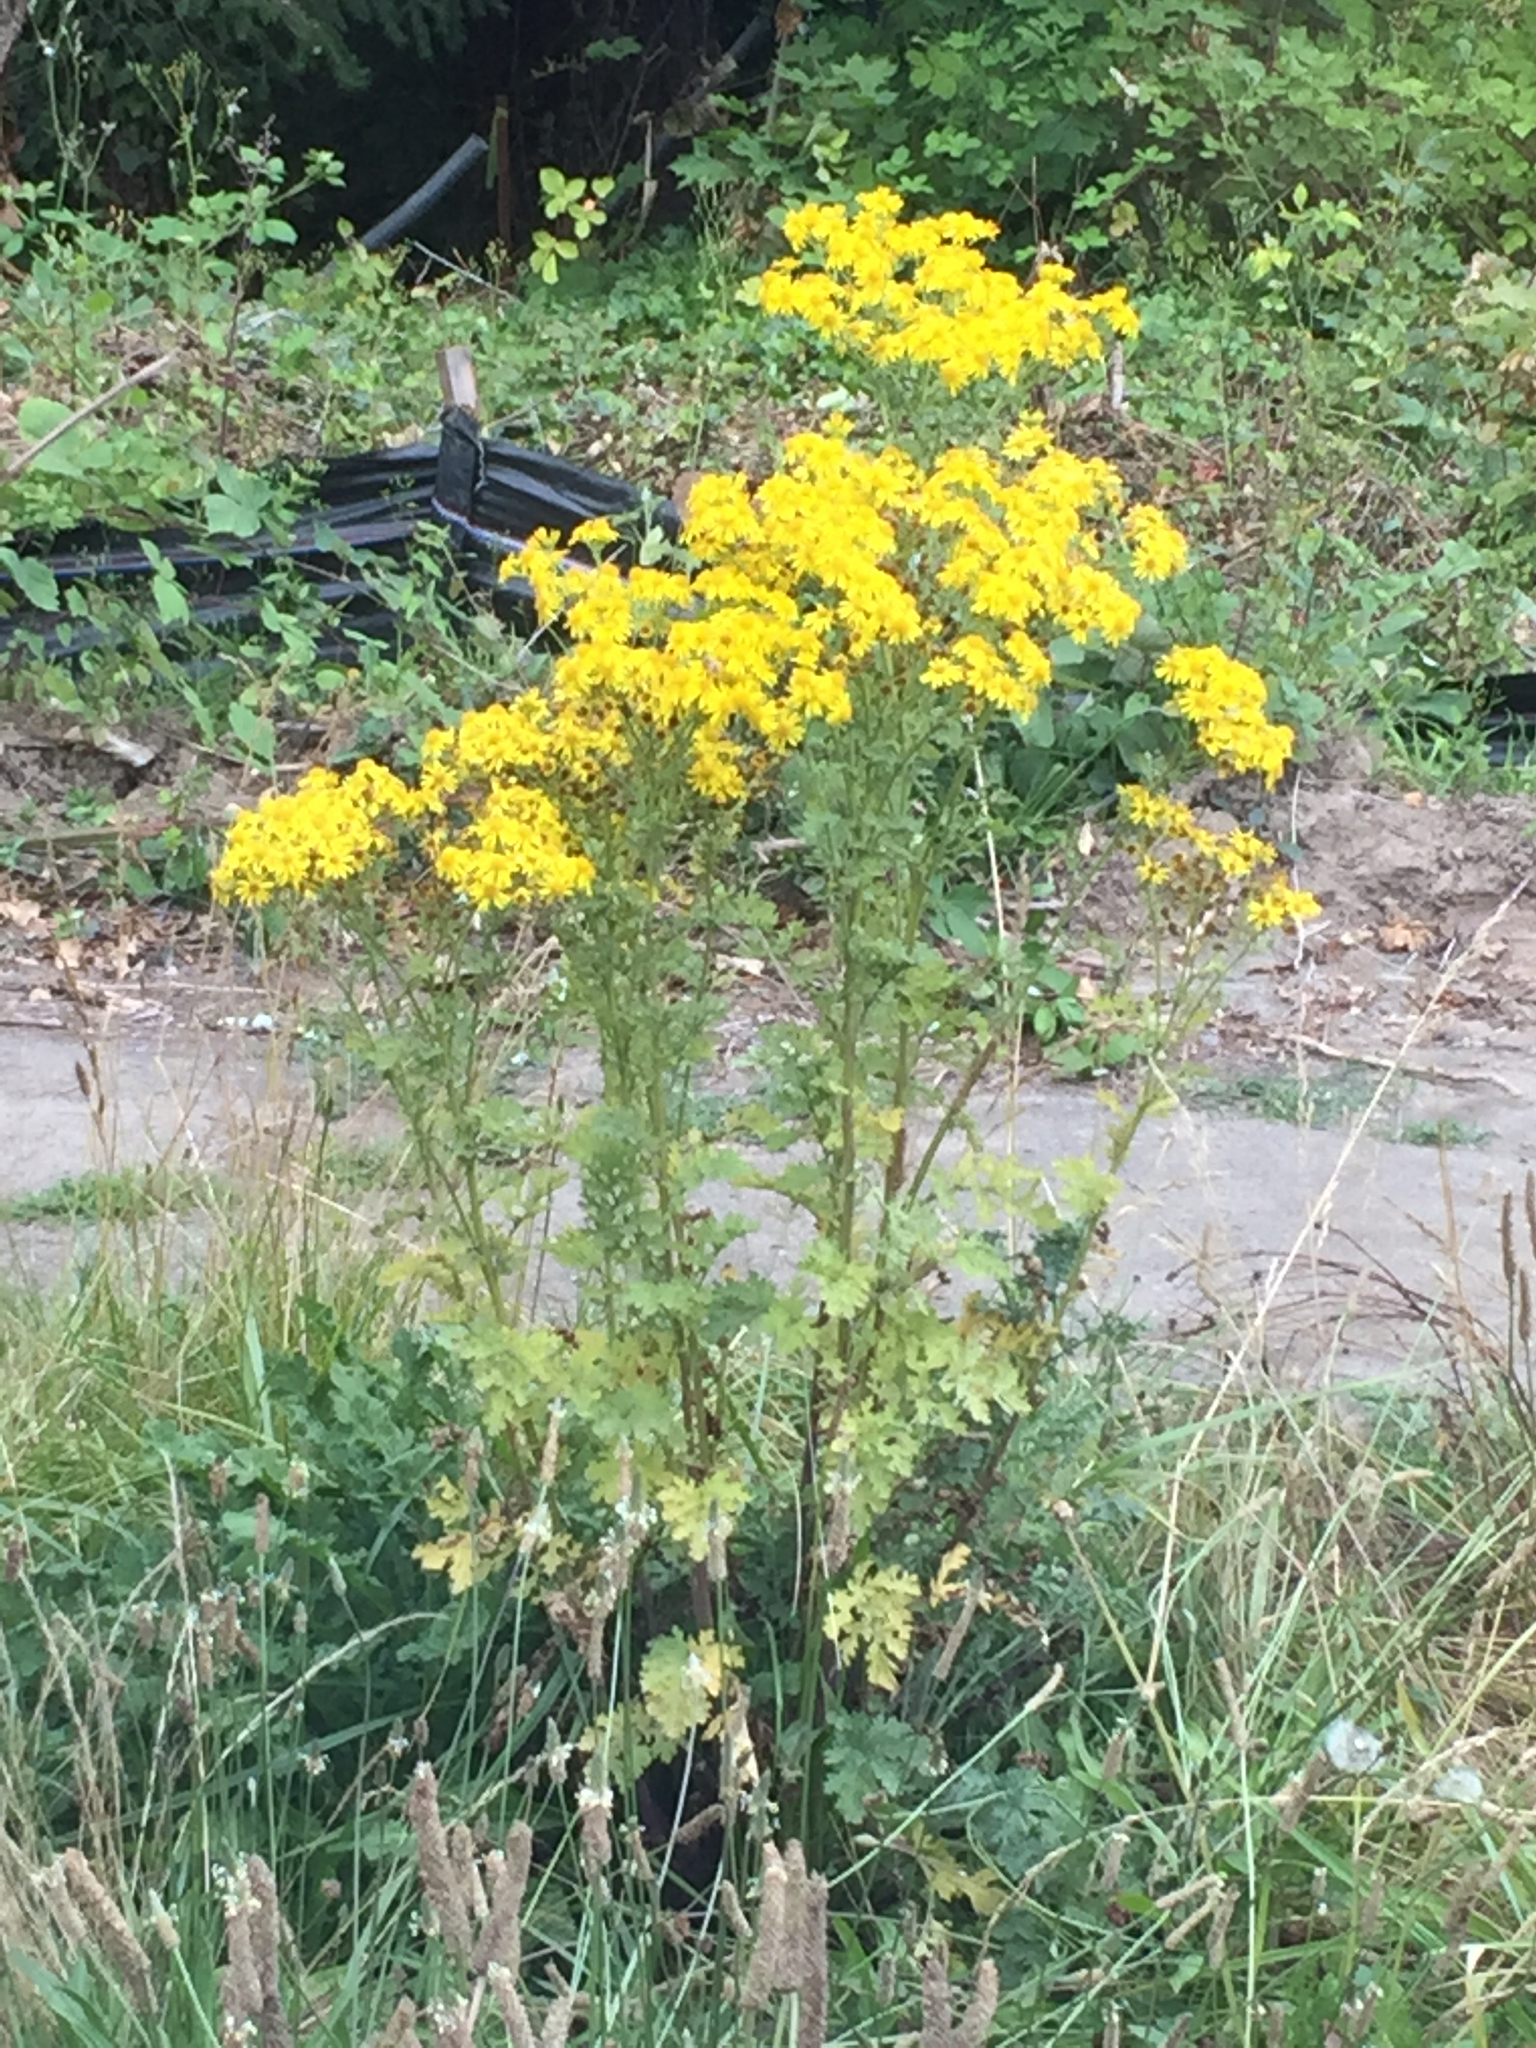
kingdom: Plantae
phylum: Tracheophyta
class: Magnoliopsida
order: Asterales
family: Asteraceae
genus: Jacobaea
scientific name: Jacobaea vulgaris
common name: Stinking willie
